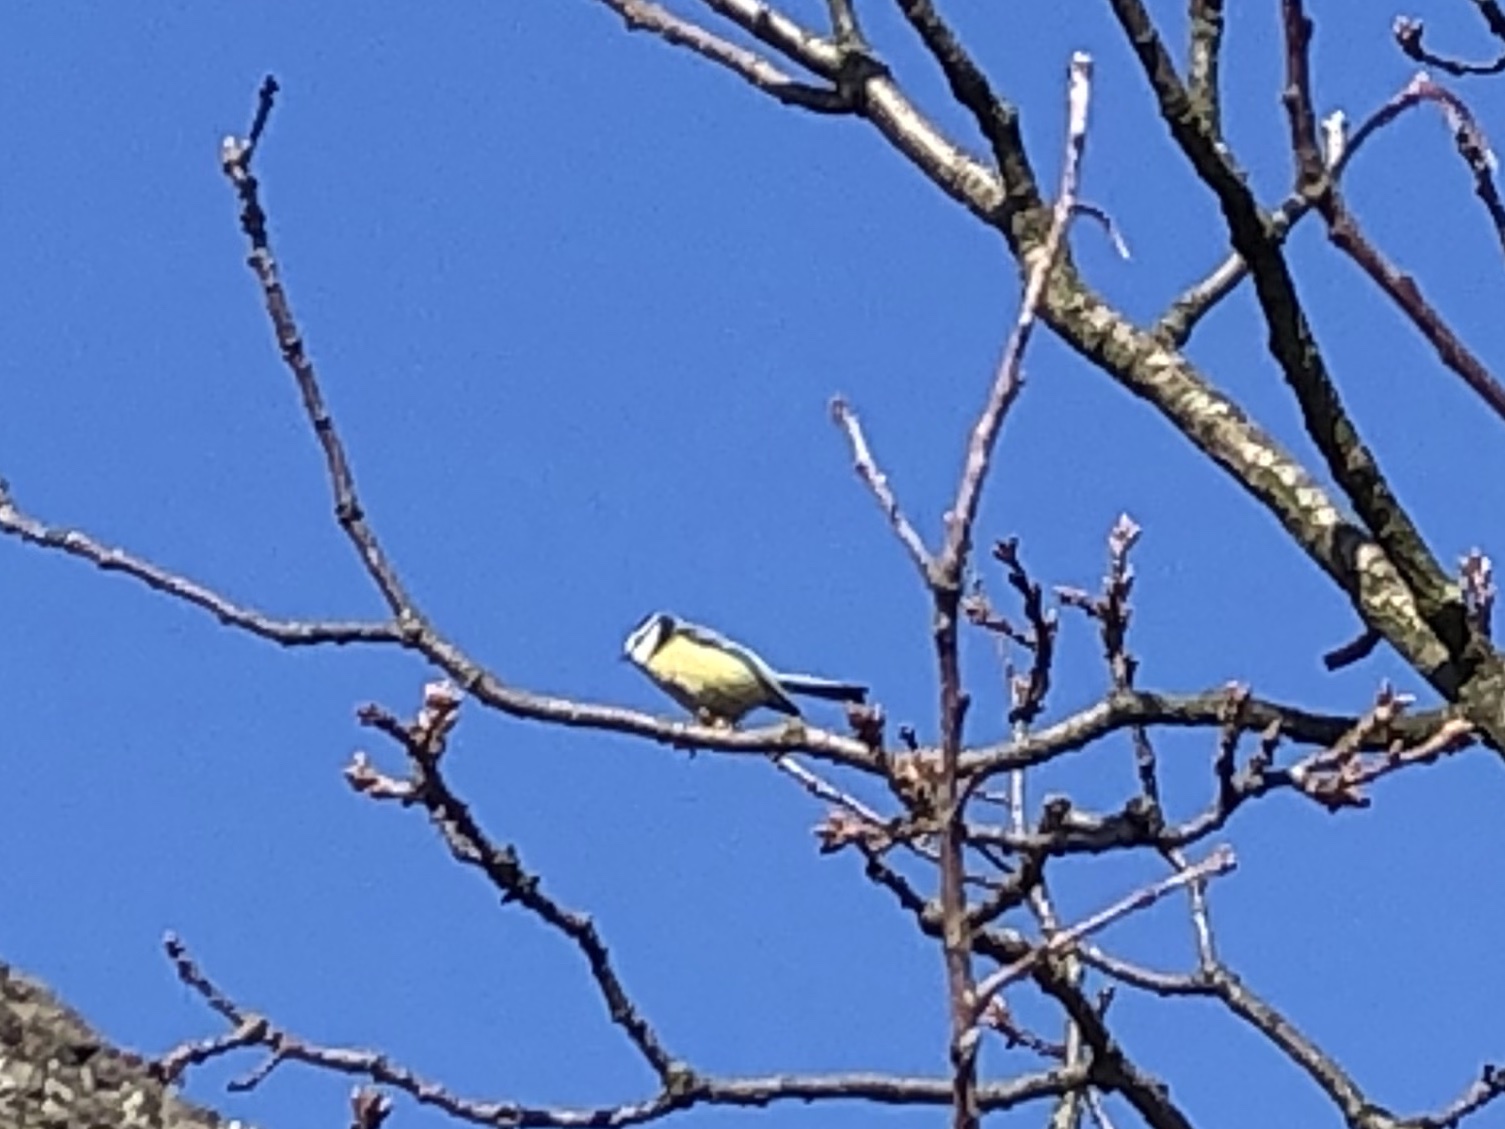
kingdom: Animalia
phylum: Chordata
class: Aves
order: Passeriformes
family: Paridae
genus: Cyanistes
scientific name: Cyanistes caeruleus
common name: Eurasian blue tit
